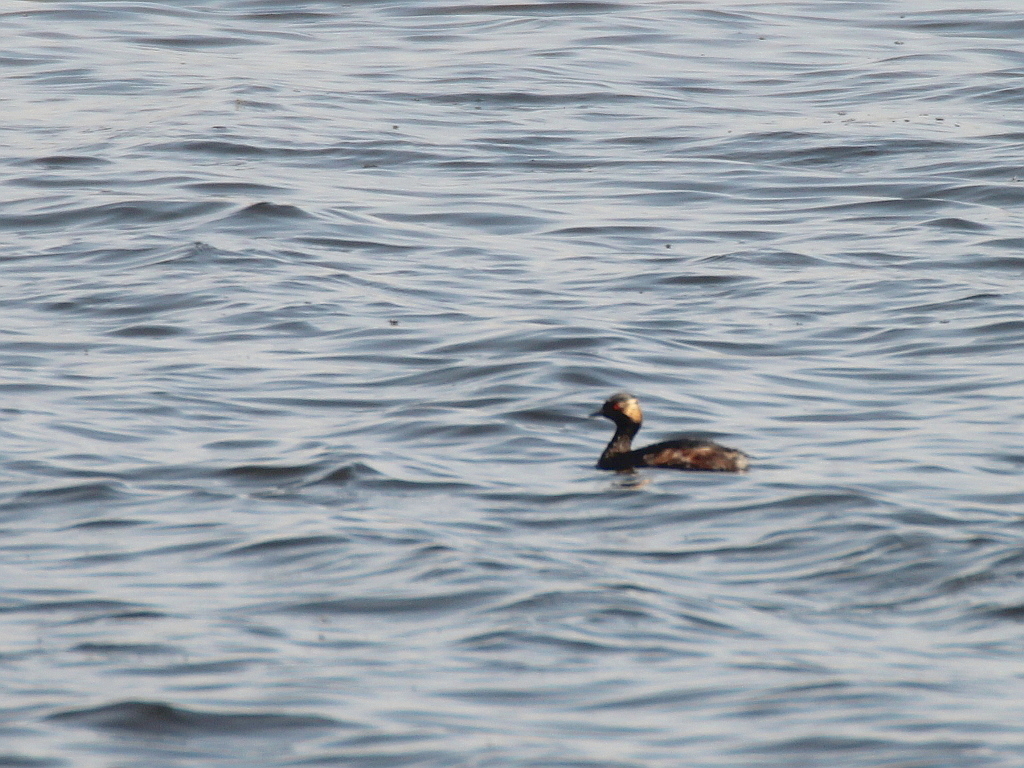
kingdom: Animalia
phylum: Chordata
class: Aves
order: Podicipediformes
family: Podicipedidae
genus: Podiceps
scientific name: Podiceps nigricollis
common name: Black-necked grebe
